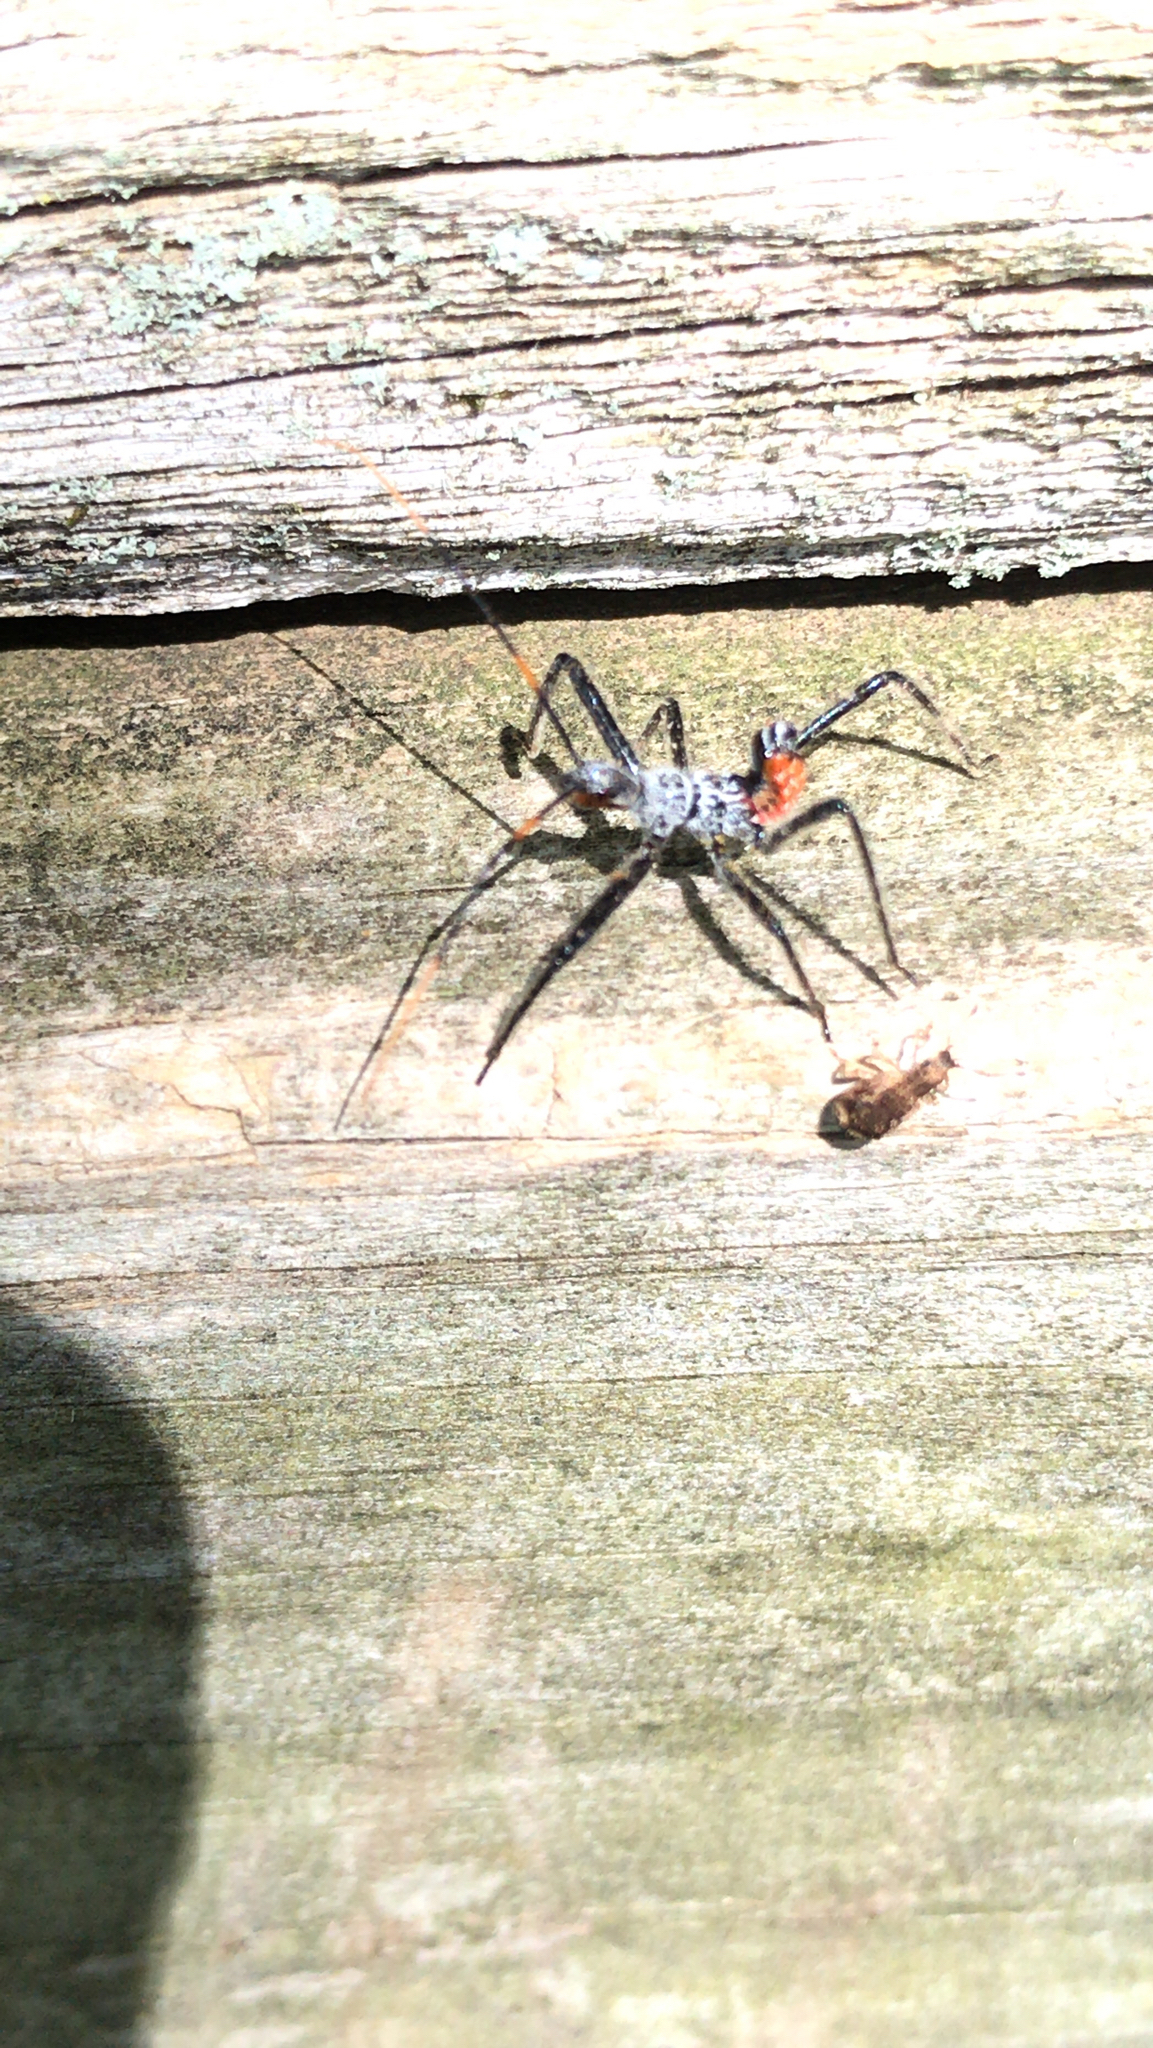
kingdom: Animalia
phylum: Arthropoda
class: Insecta
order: Hemiptera
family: Reduviidae
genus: Arilus
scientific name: Arilus cristatus
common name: North american wheel bug
